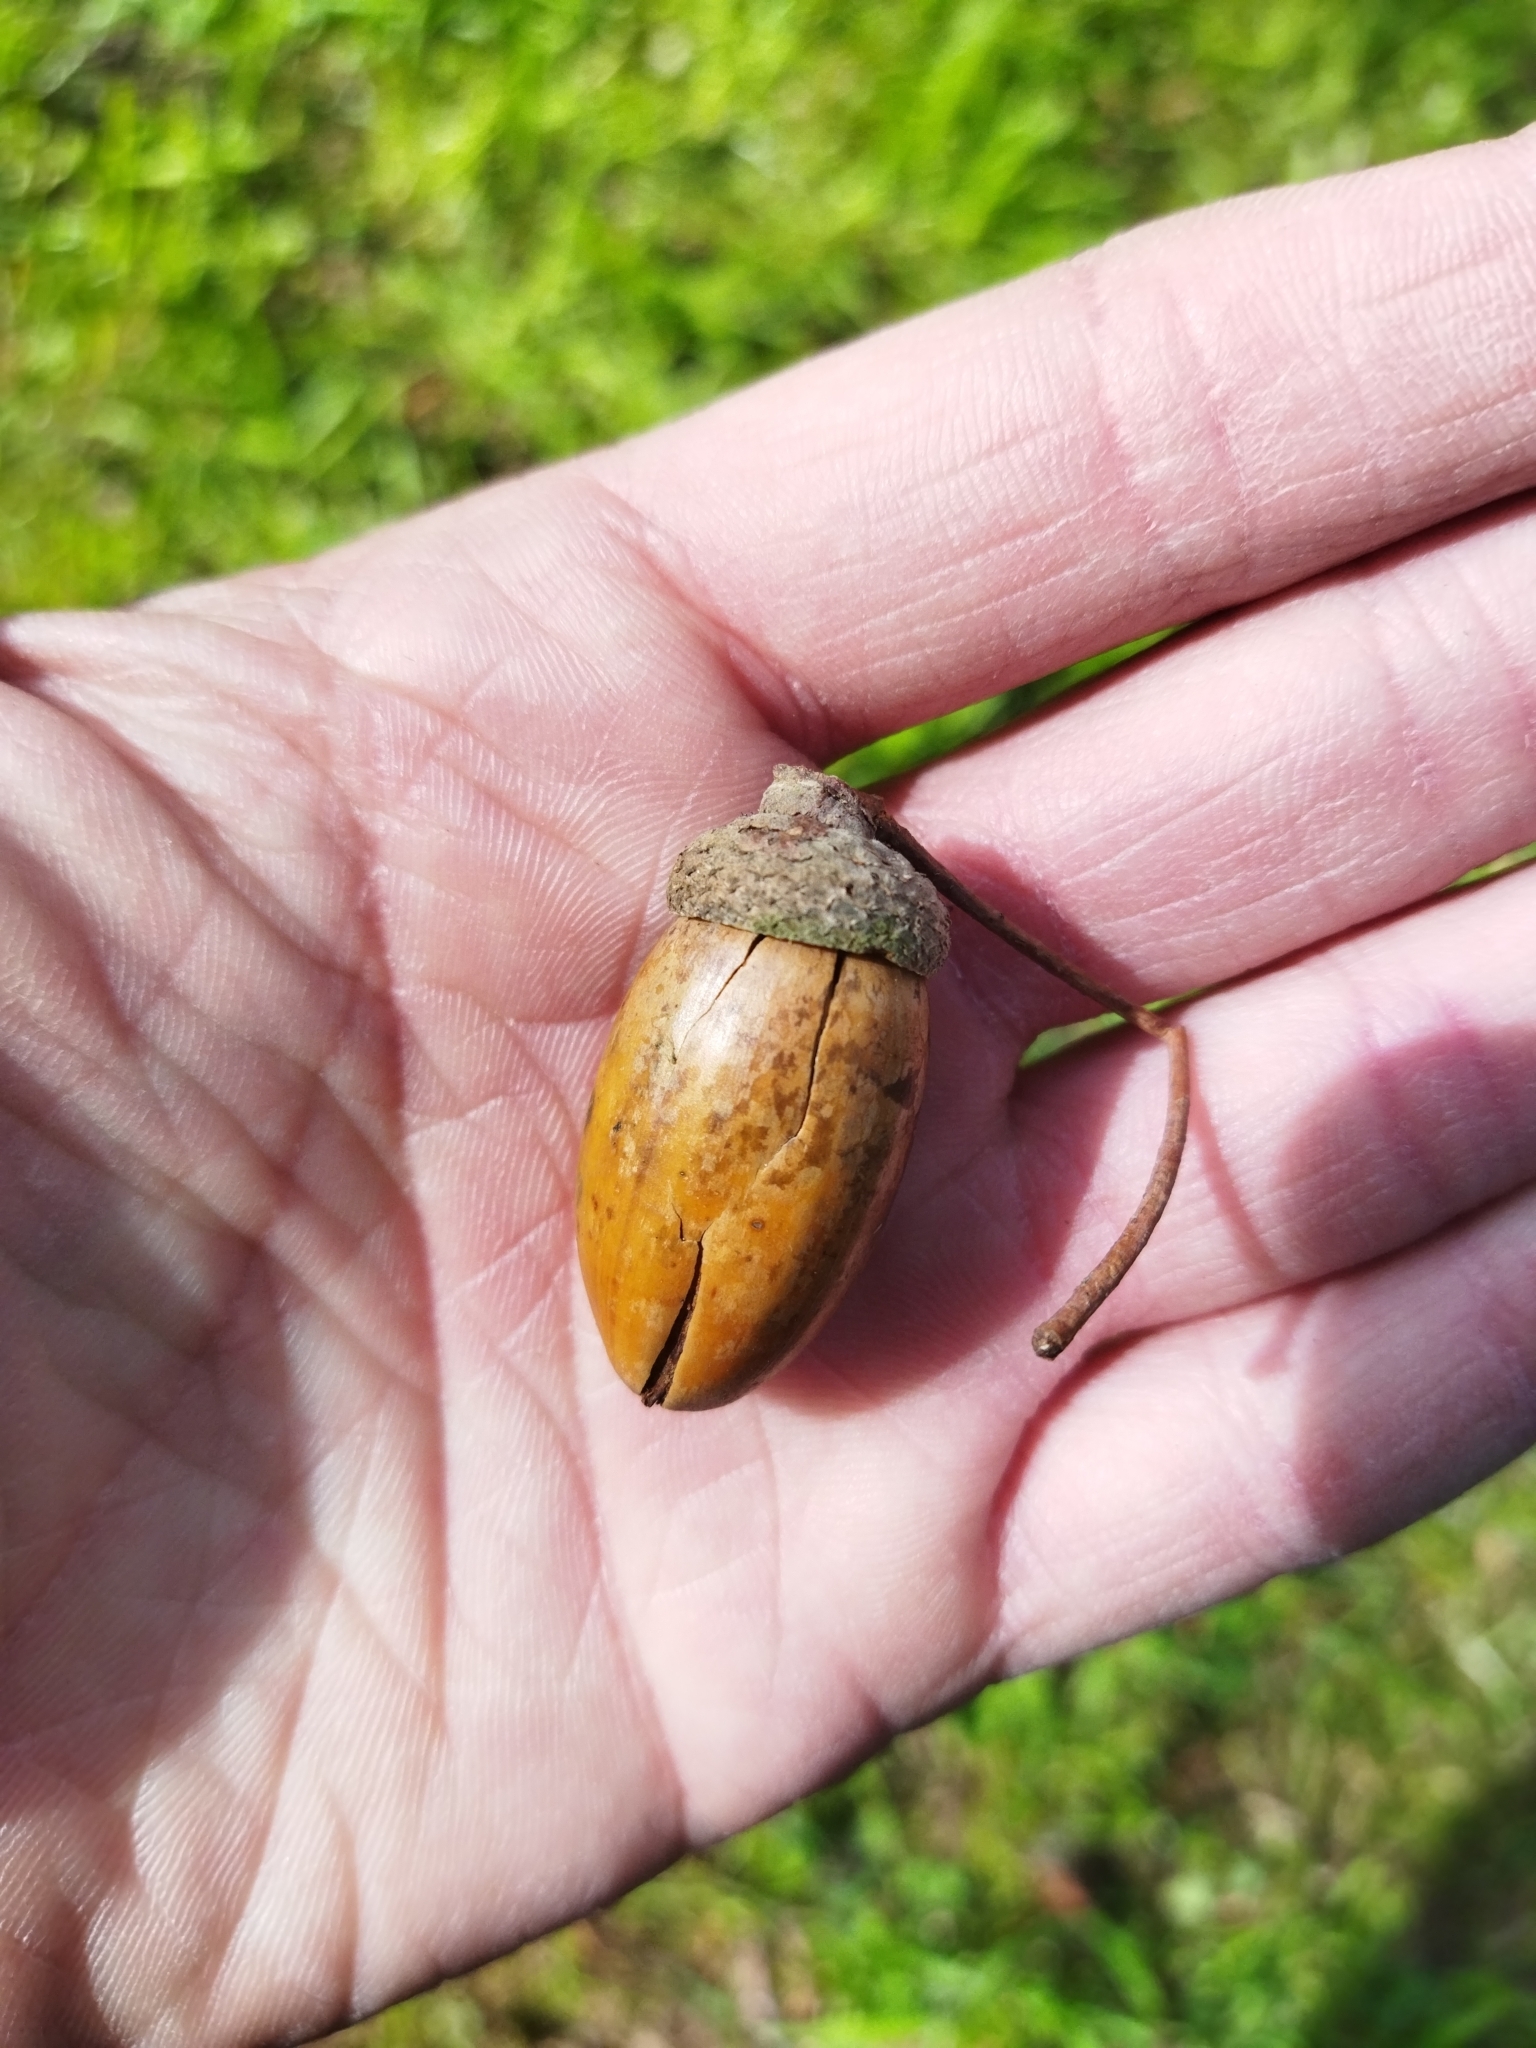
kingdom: Plantae
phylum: Tracheophyta
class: Magnoliopsida
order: Fagales
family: Fagaceae
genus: Quercus
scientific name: Quercus robur
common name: Pedunculate oak
